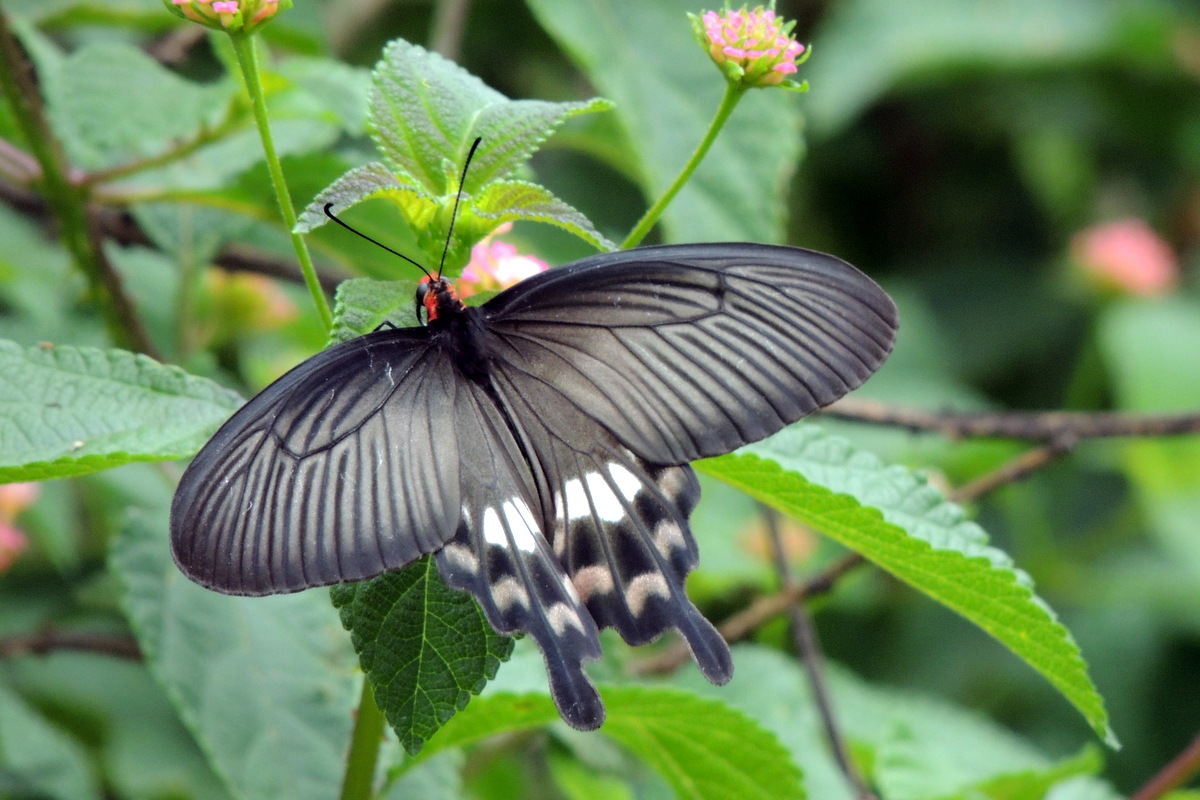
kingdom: Animalia
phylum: Arthropoda
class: Insecta
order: Lepidoptera
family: Papilionidae
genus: Pachliopta
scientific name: Pachliopta aristolochiae
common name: Common rose
